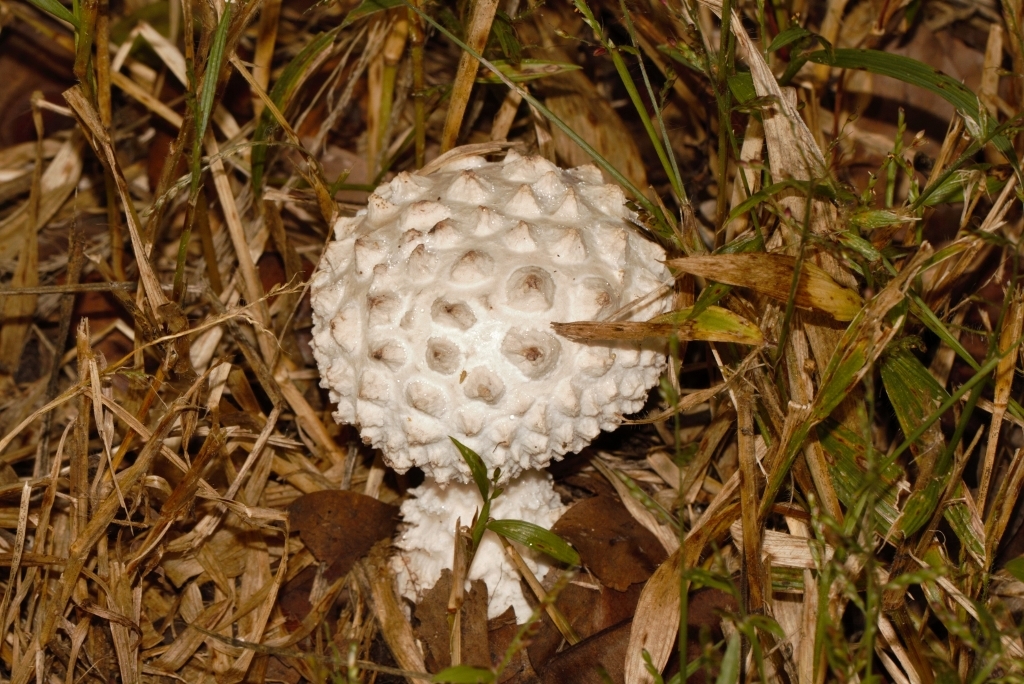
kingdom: Fungi
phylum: Basidiomycota
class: Agaricomycetes
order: Agaricales
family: Amanitaceae
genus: Amanita
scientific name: Amanita pyramidifera
